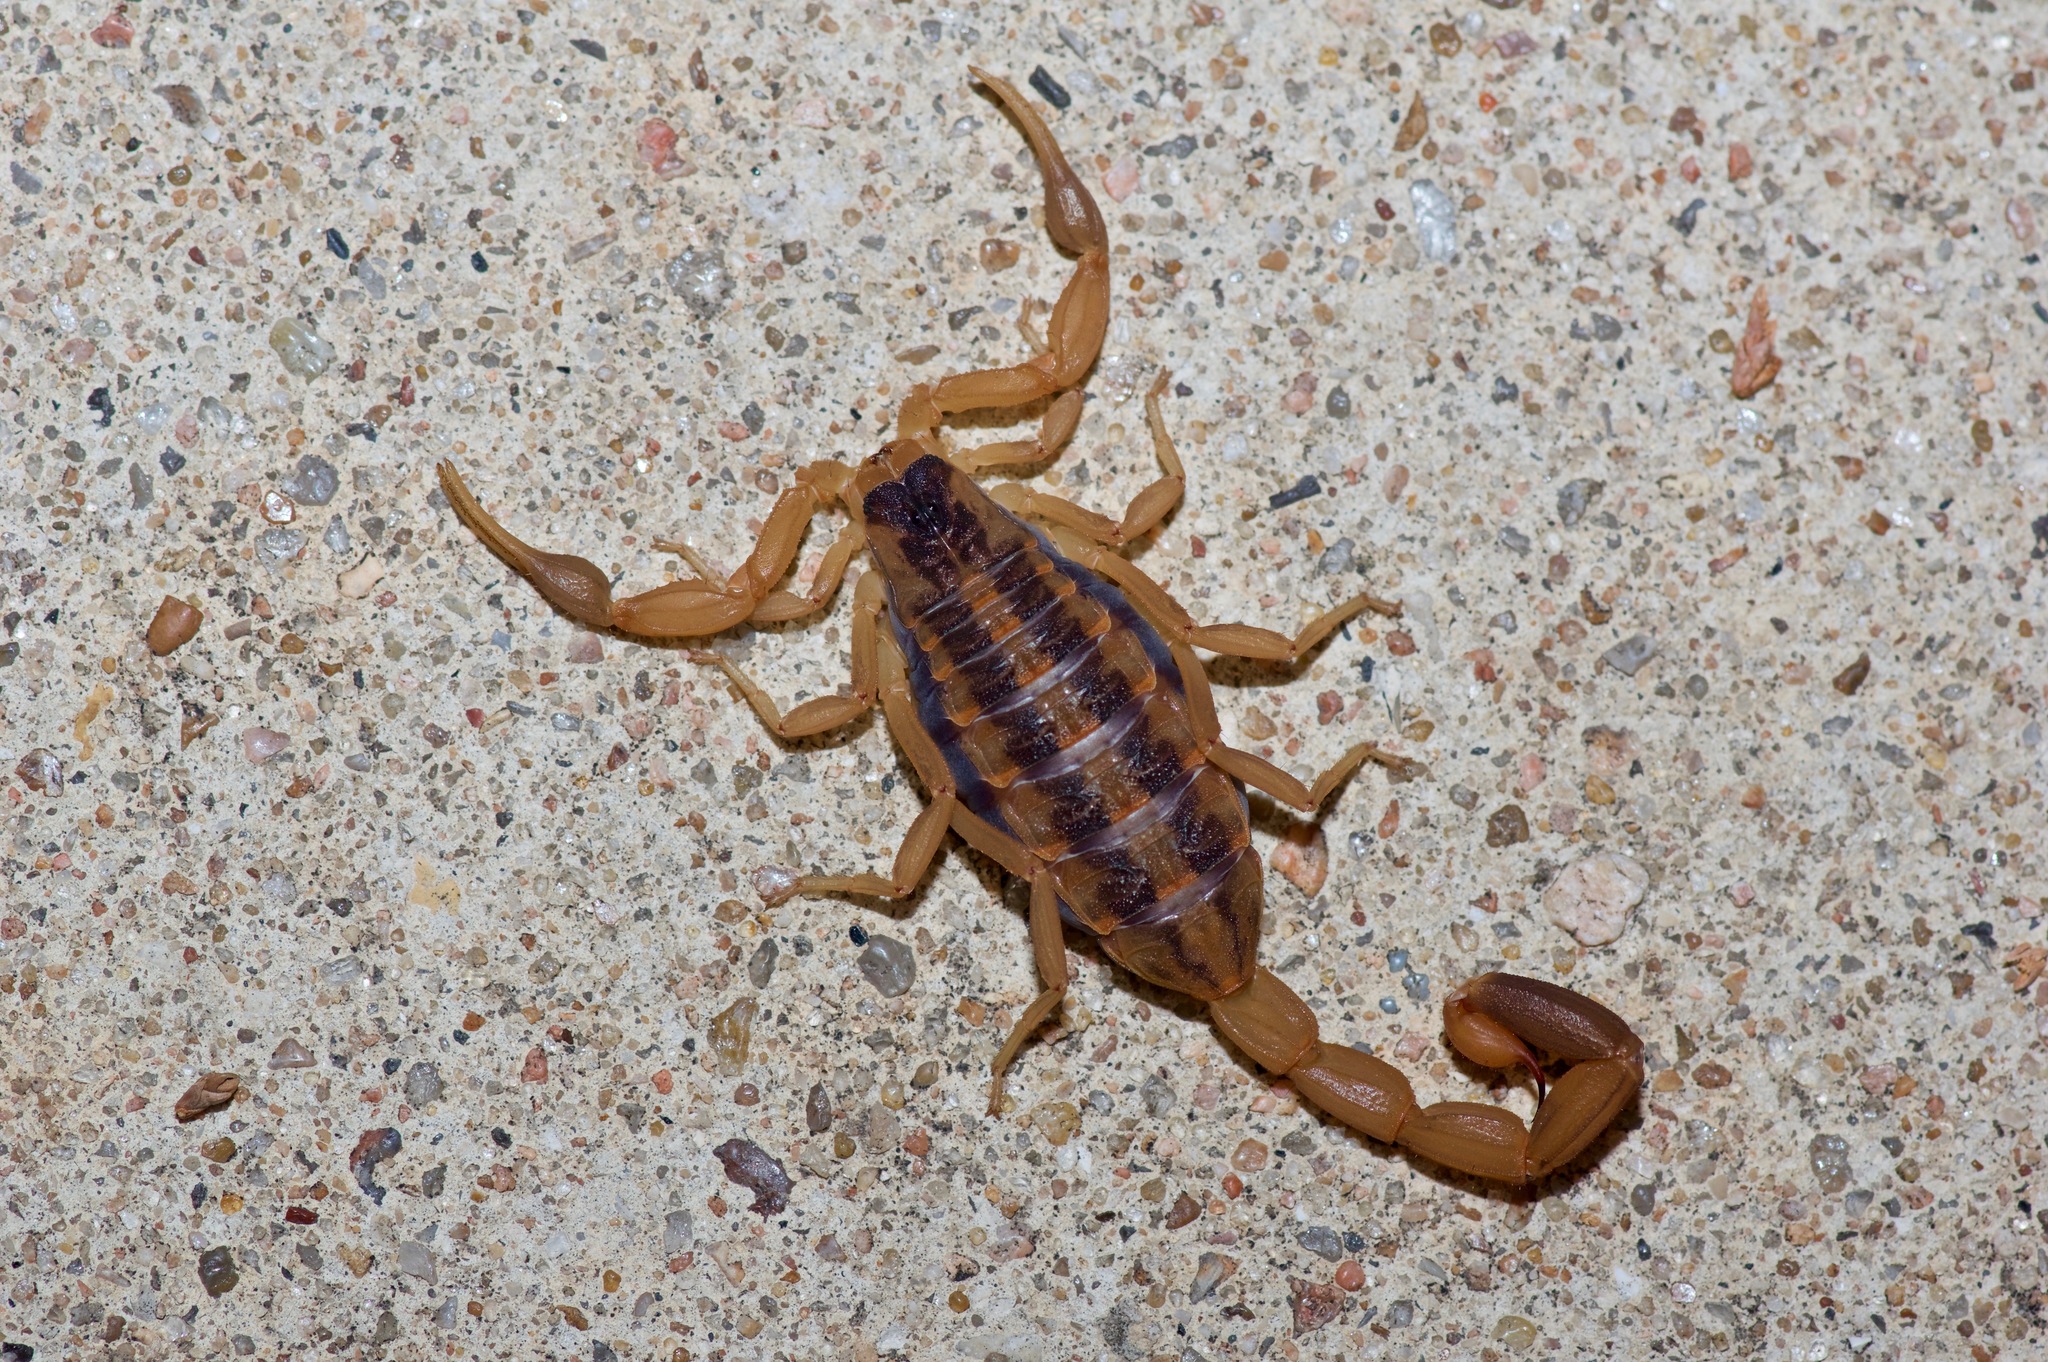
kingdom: Animalia
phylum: Arthropoda
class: Arachnida
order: Scorpiones
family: Buthidae
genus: Centruroides
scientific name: Centruroides vittatus
